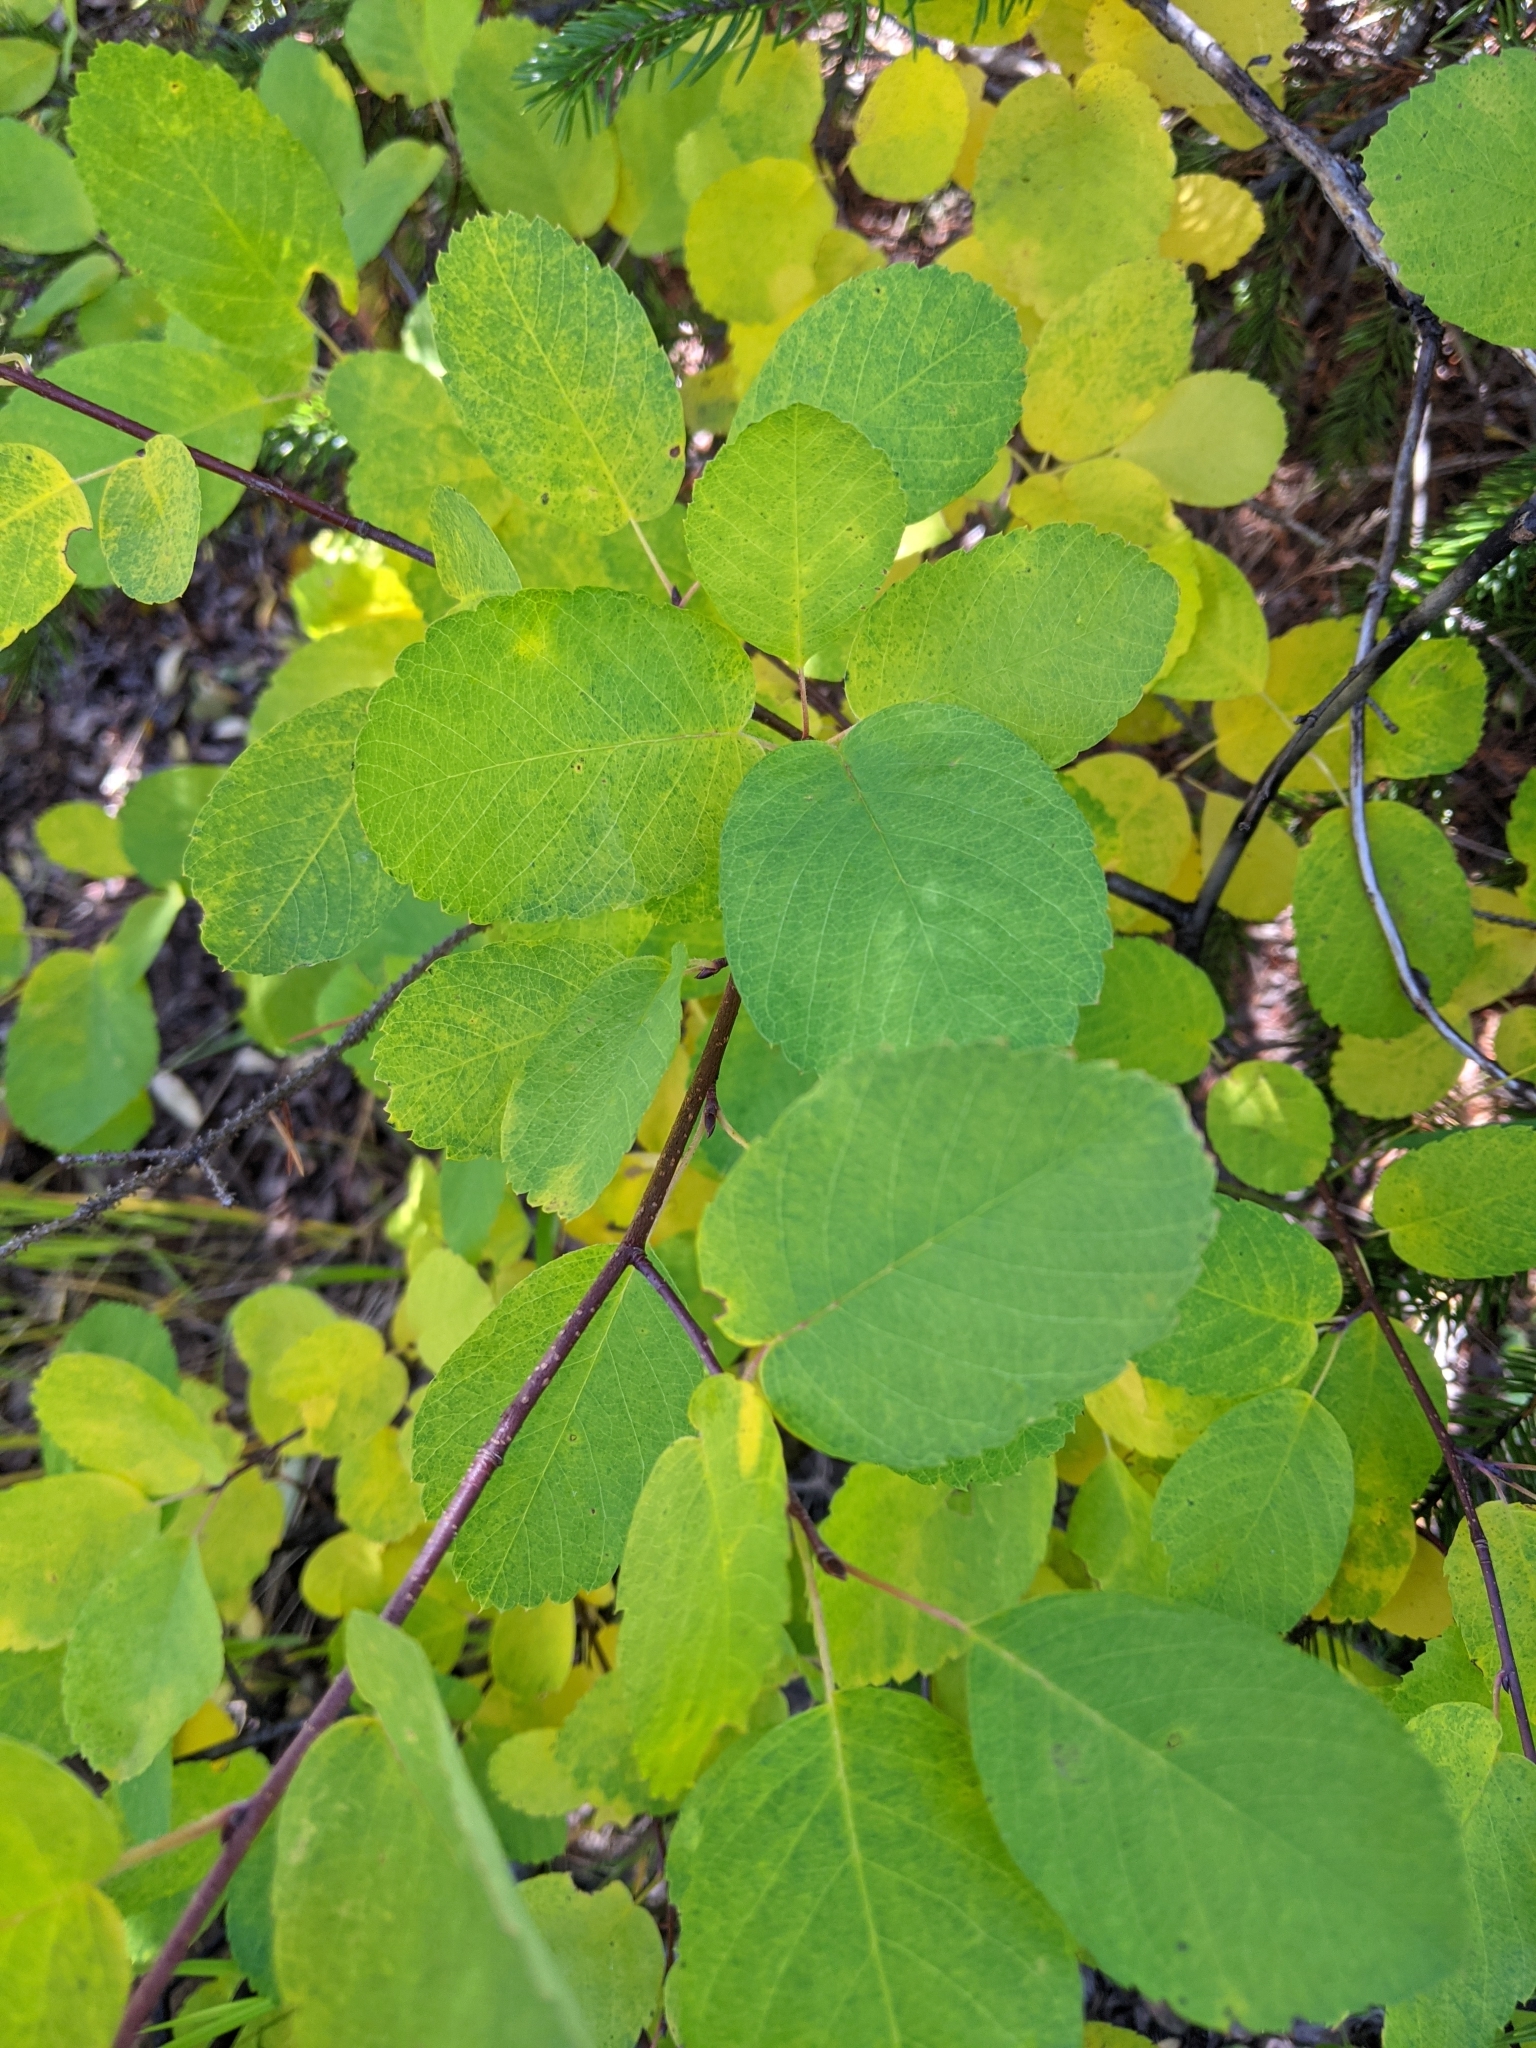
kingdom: Plantae
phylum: Tracheophyta
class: Magnoliopsida
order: Rosales
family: Rosaceae
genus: Amelanchier
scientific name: Amelanchier alnifolia
